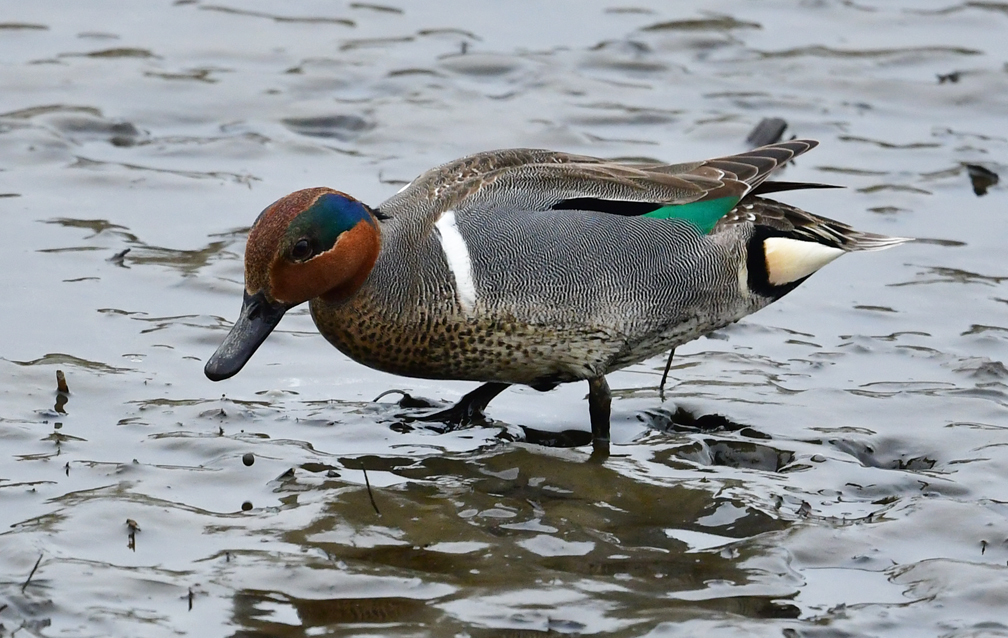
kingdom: Animalia
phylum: Chordata
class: Aves
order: Anseriformes
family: Anatidae
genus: Anas
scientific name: Anas crecca
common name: Eurasian teal
